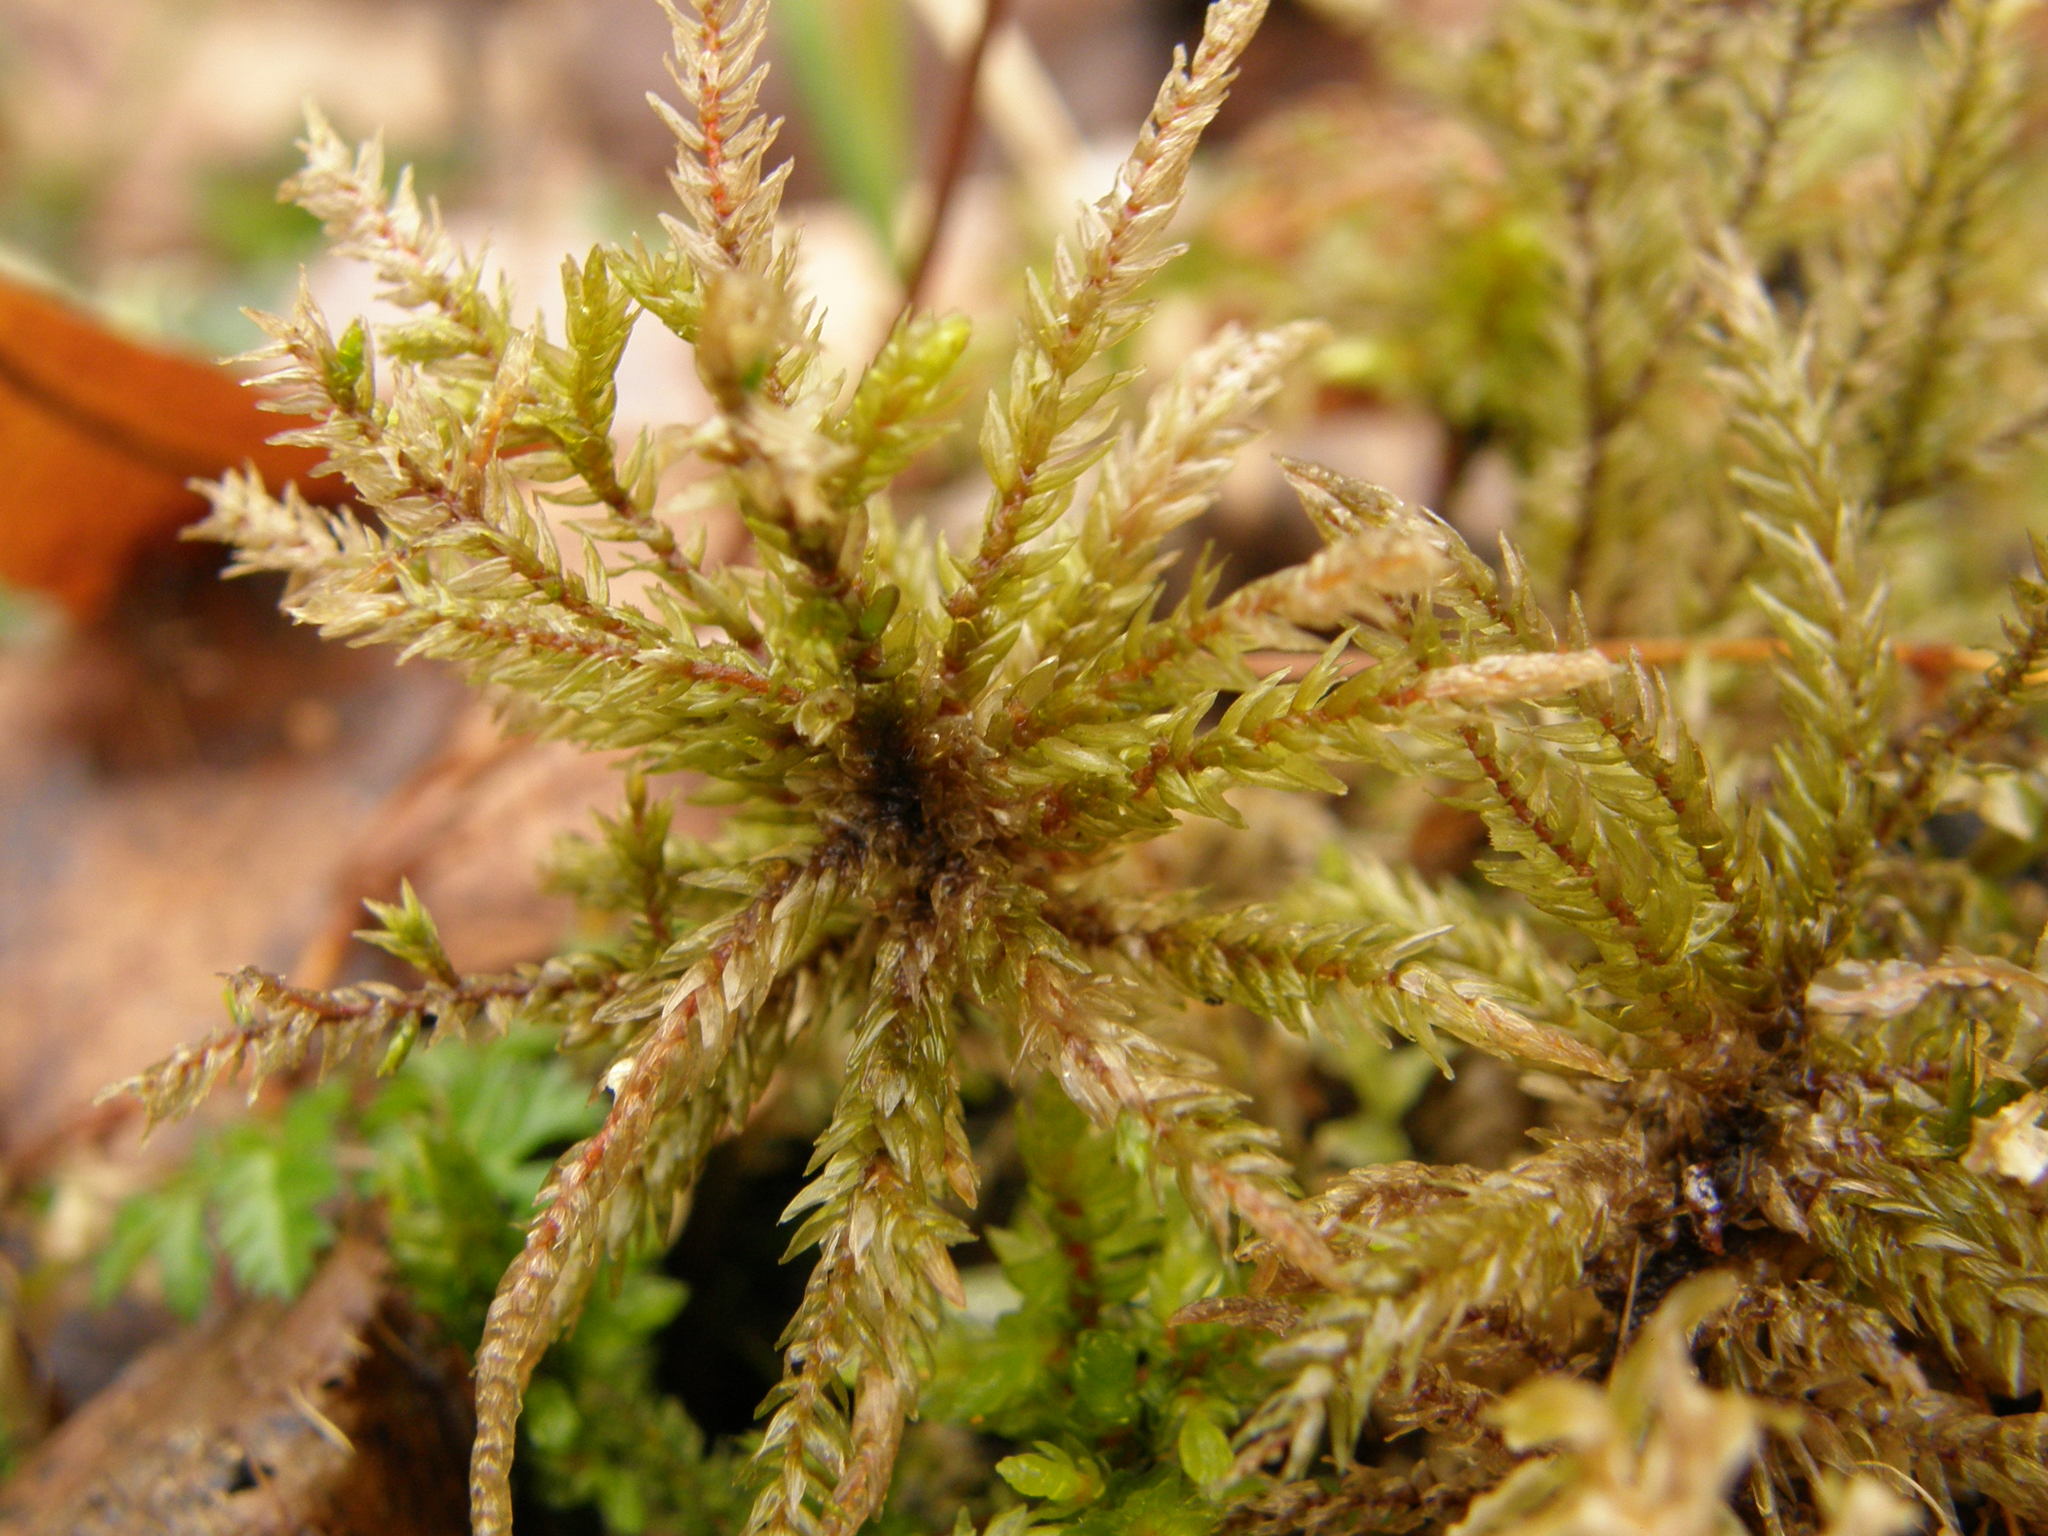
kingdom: Plantae
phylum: Bryophyta
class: Bryopsida
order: Hypnales
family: Climaciaceae
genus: Climacium
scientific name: Climacium dendroides
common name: Northern tree moss
